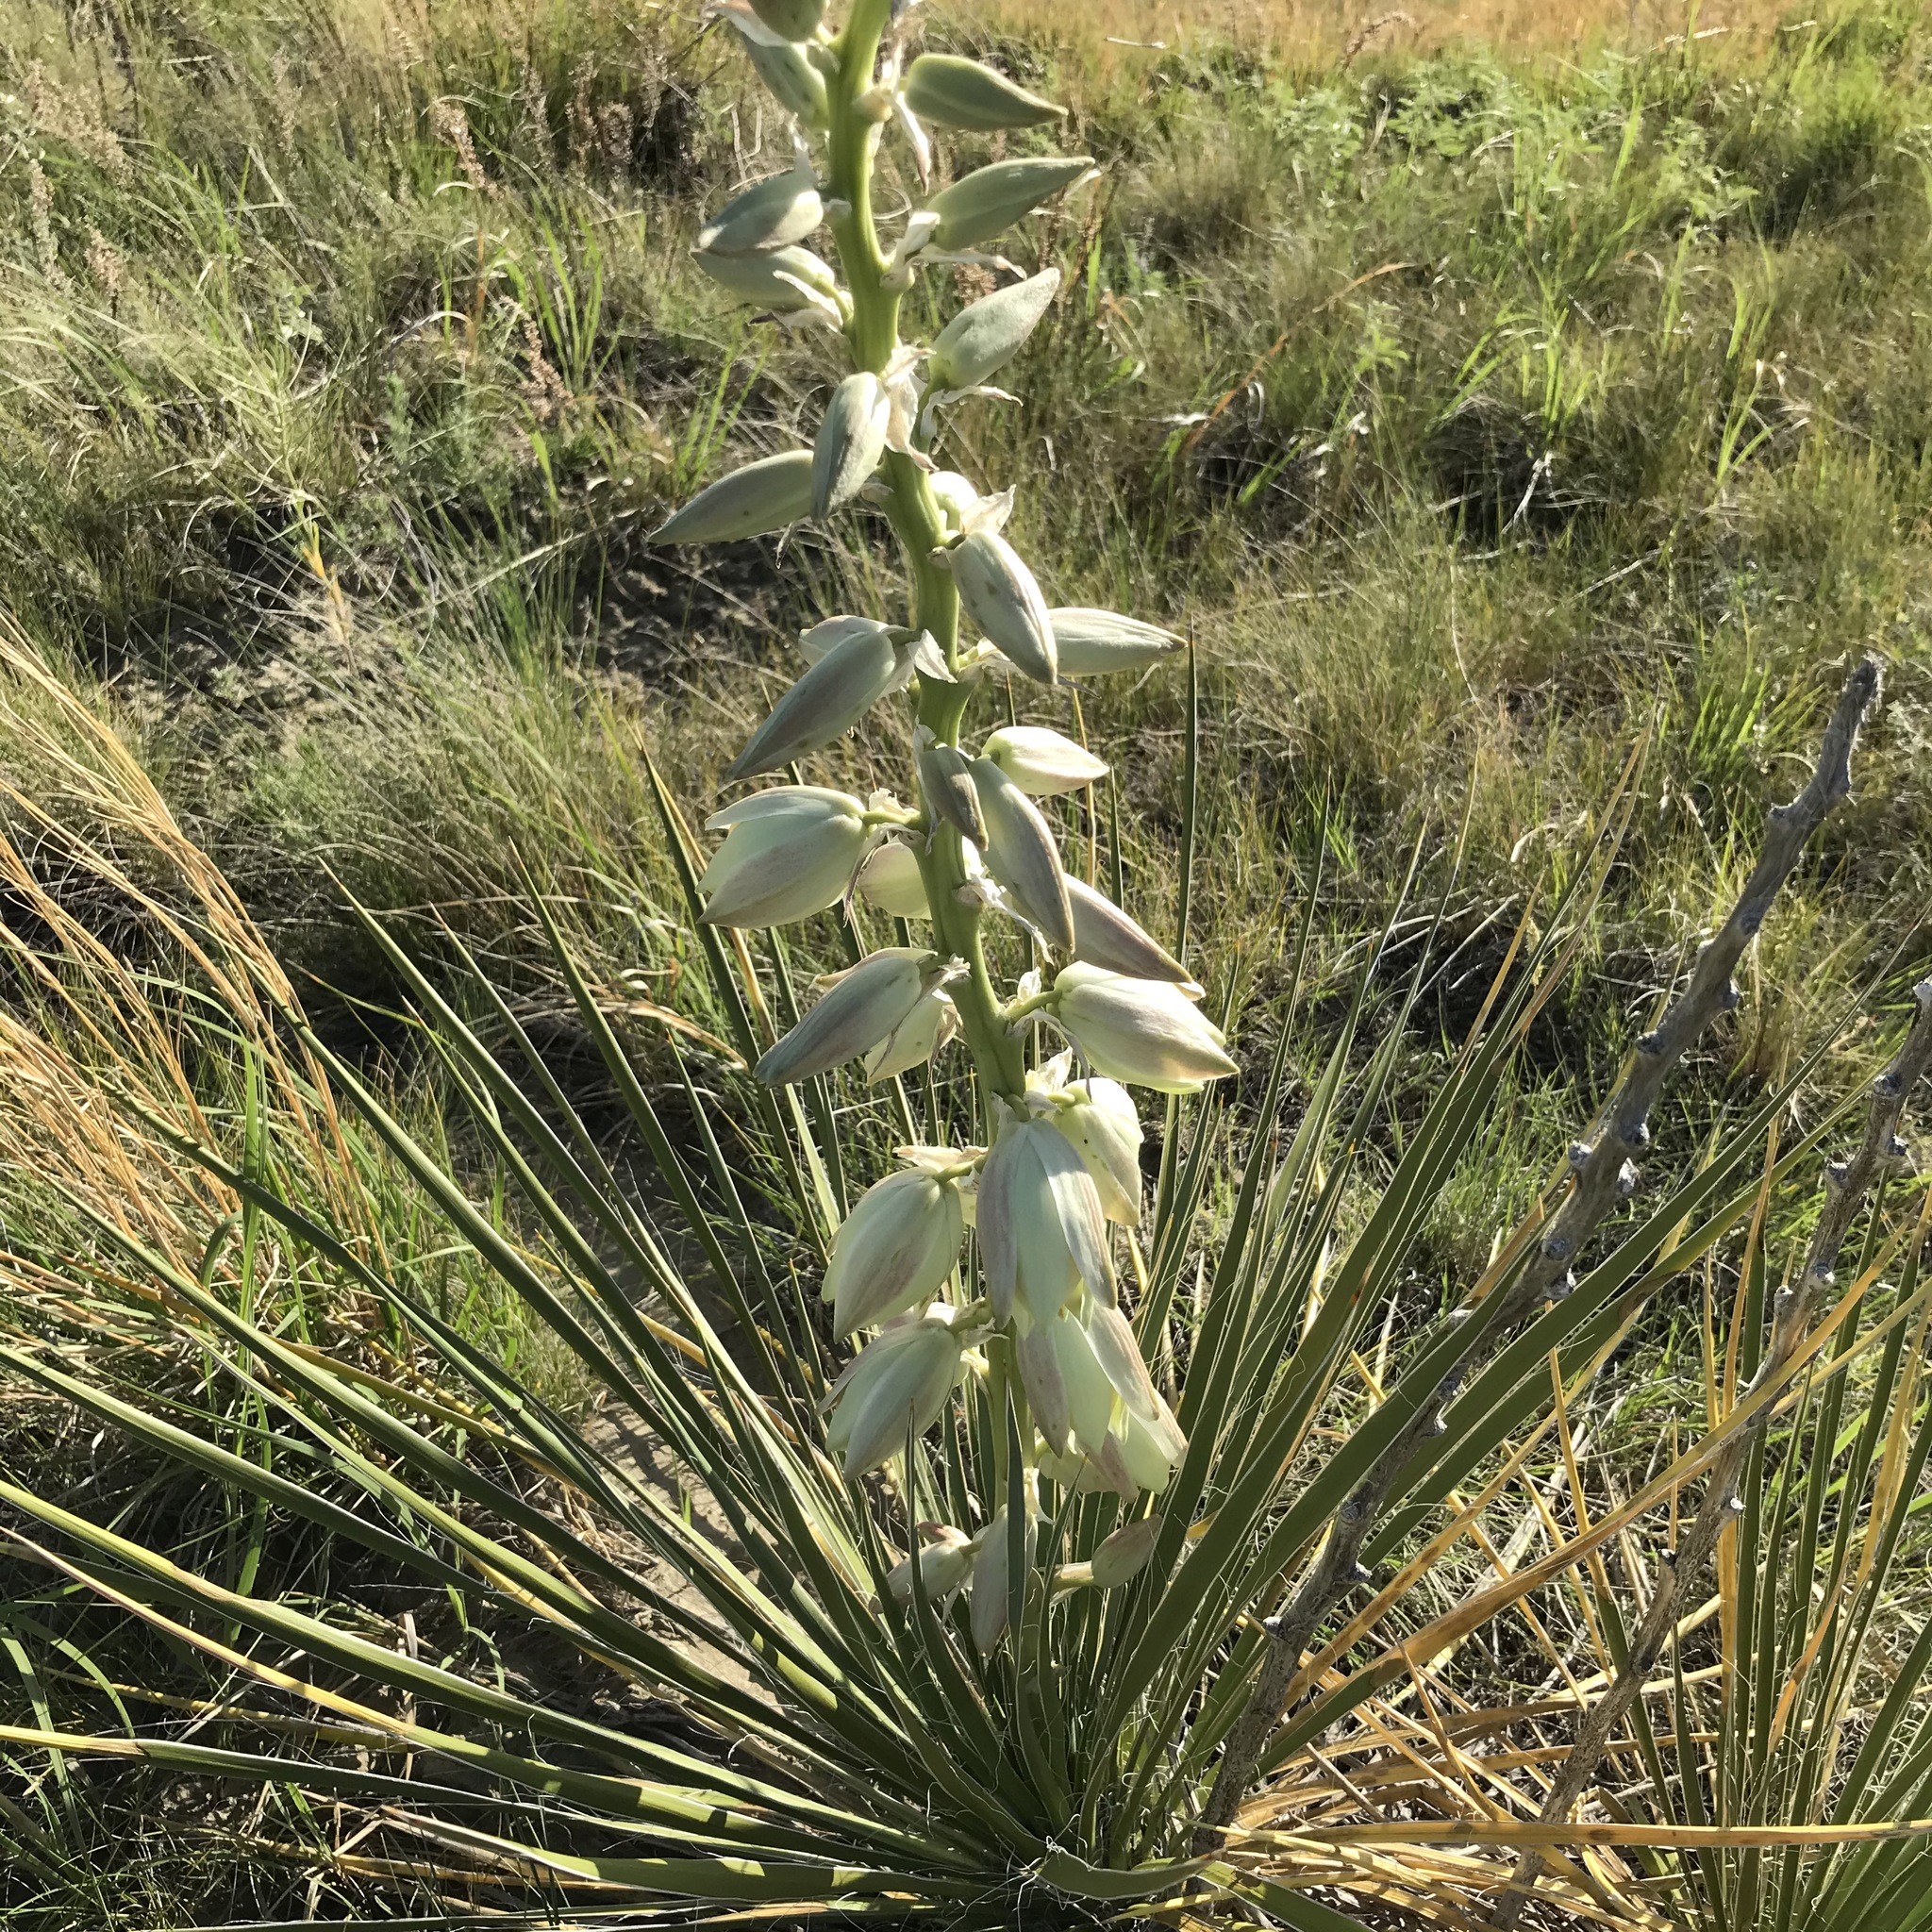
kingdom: Plantae
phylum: Tracheophyta
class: Liliopsida
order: Asparagales
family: Asparagaceae
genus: Yucca
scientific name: Yucca glauca
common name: Great plains yucca
